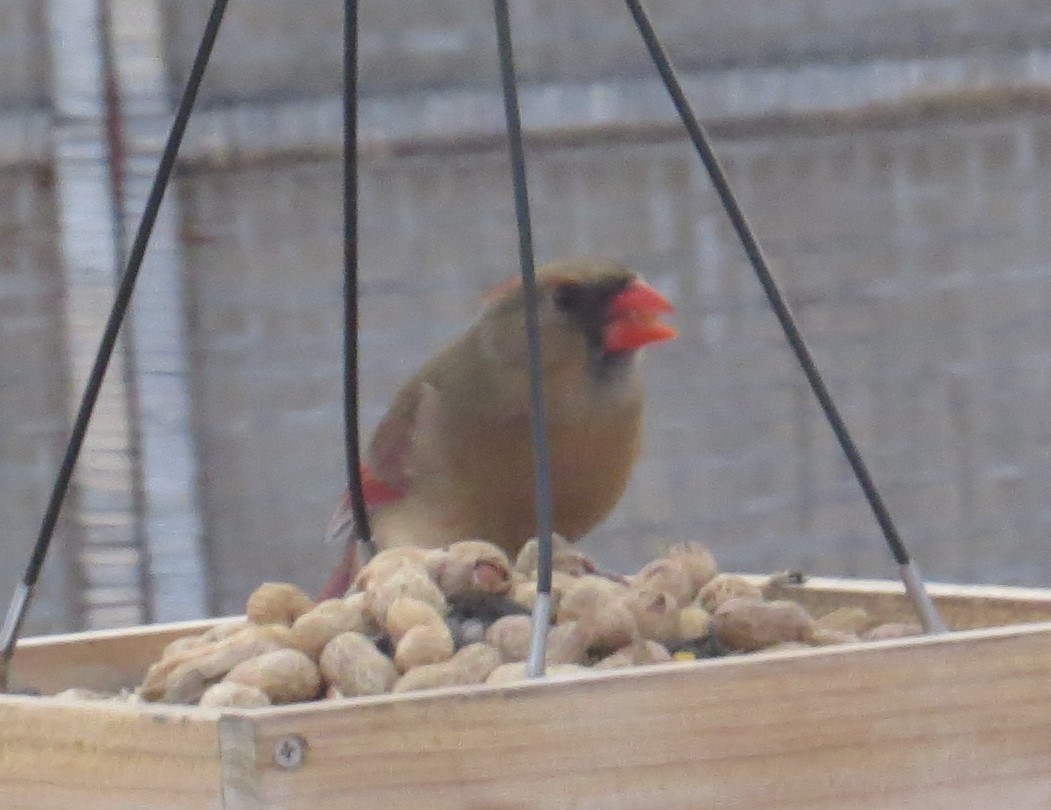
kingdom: Animalia
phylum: Chordata
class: Aves
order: Passeriformes
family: Cardinalidae
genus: Cardinalis
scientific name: Cardinalis cardinalis
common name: Northern cardinal
